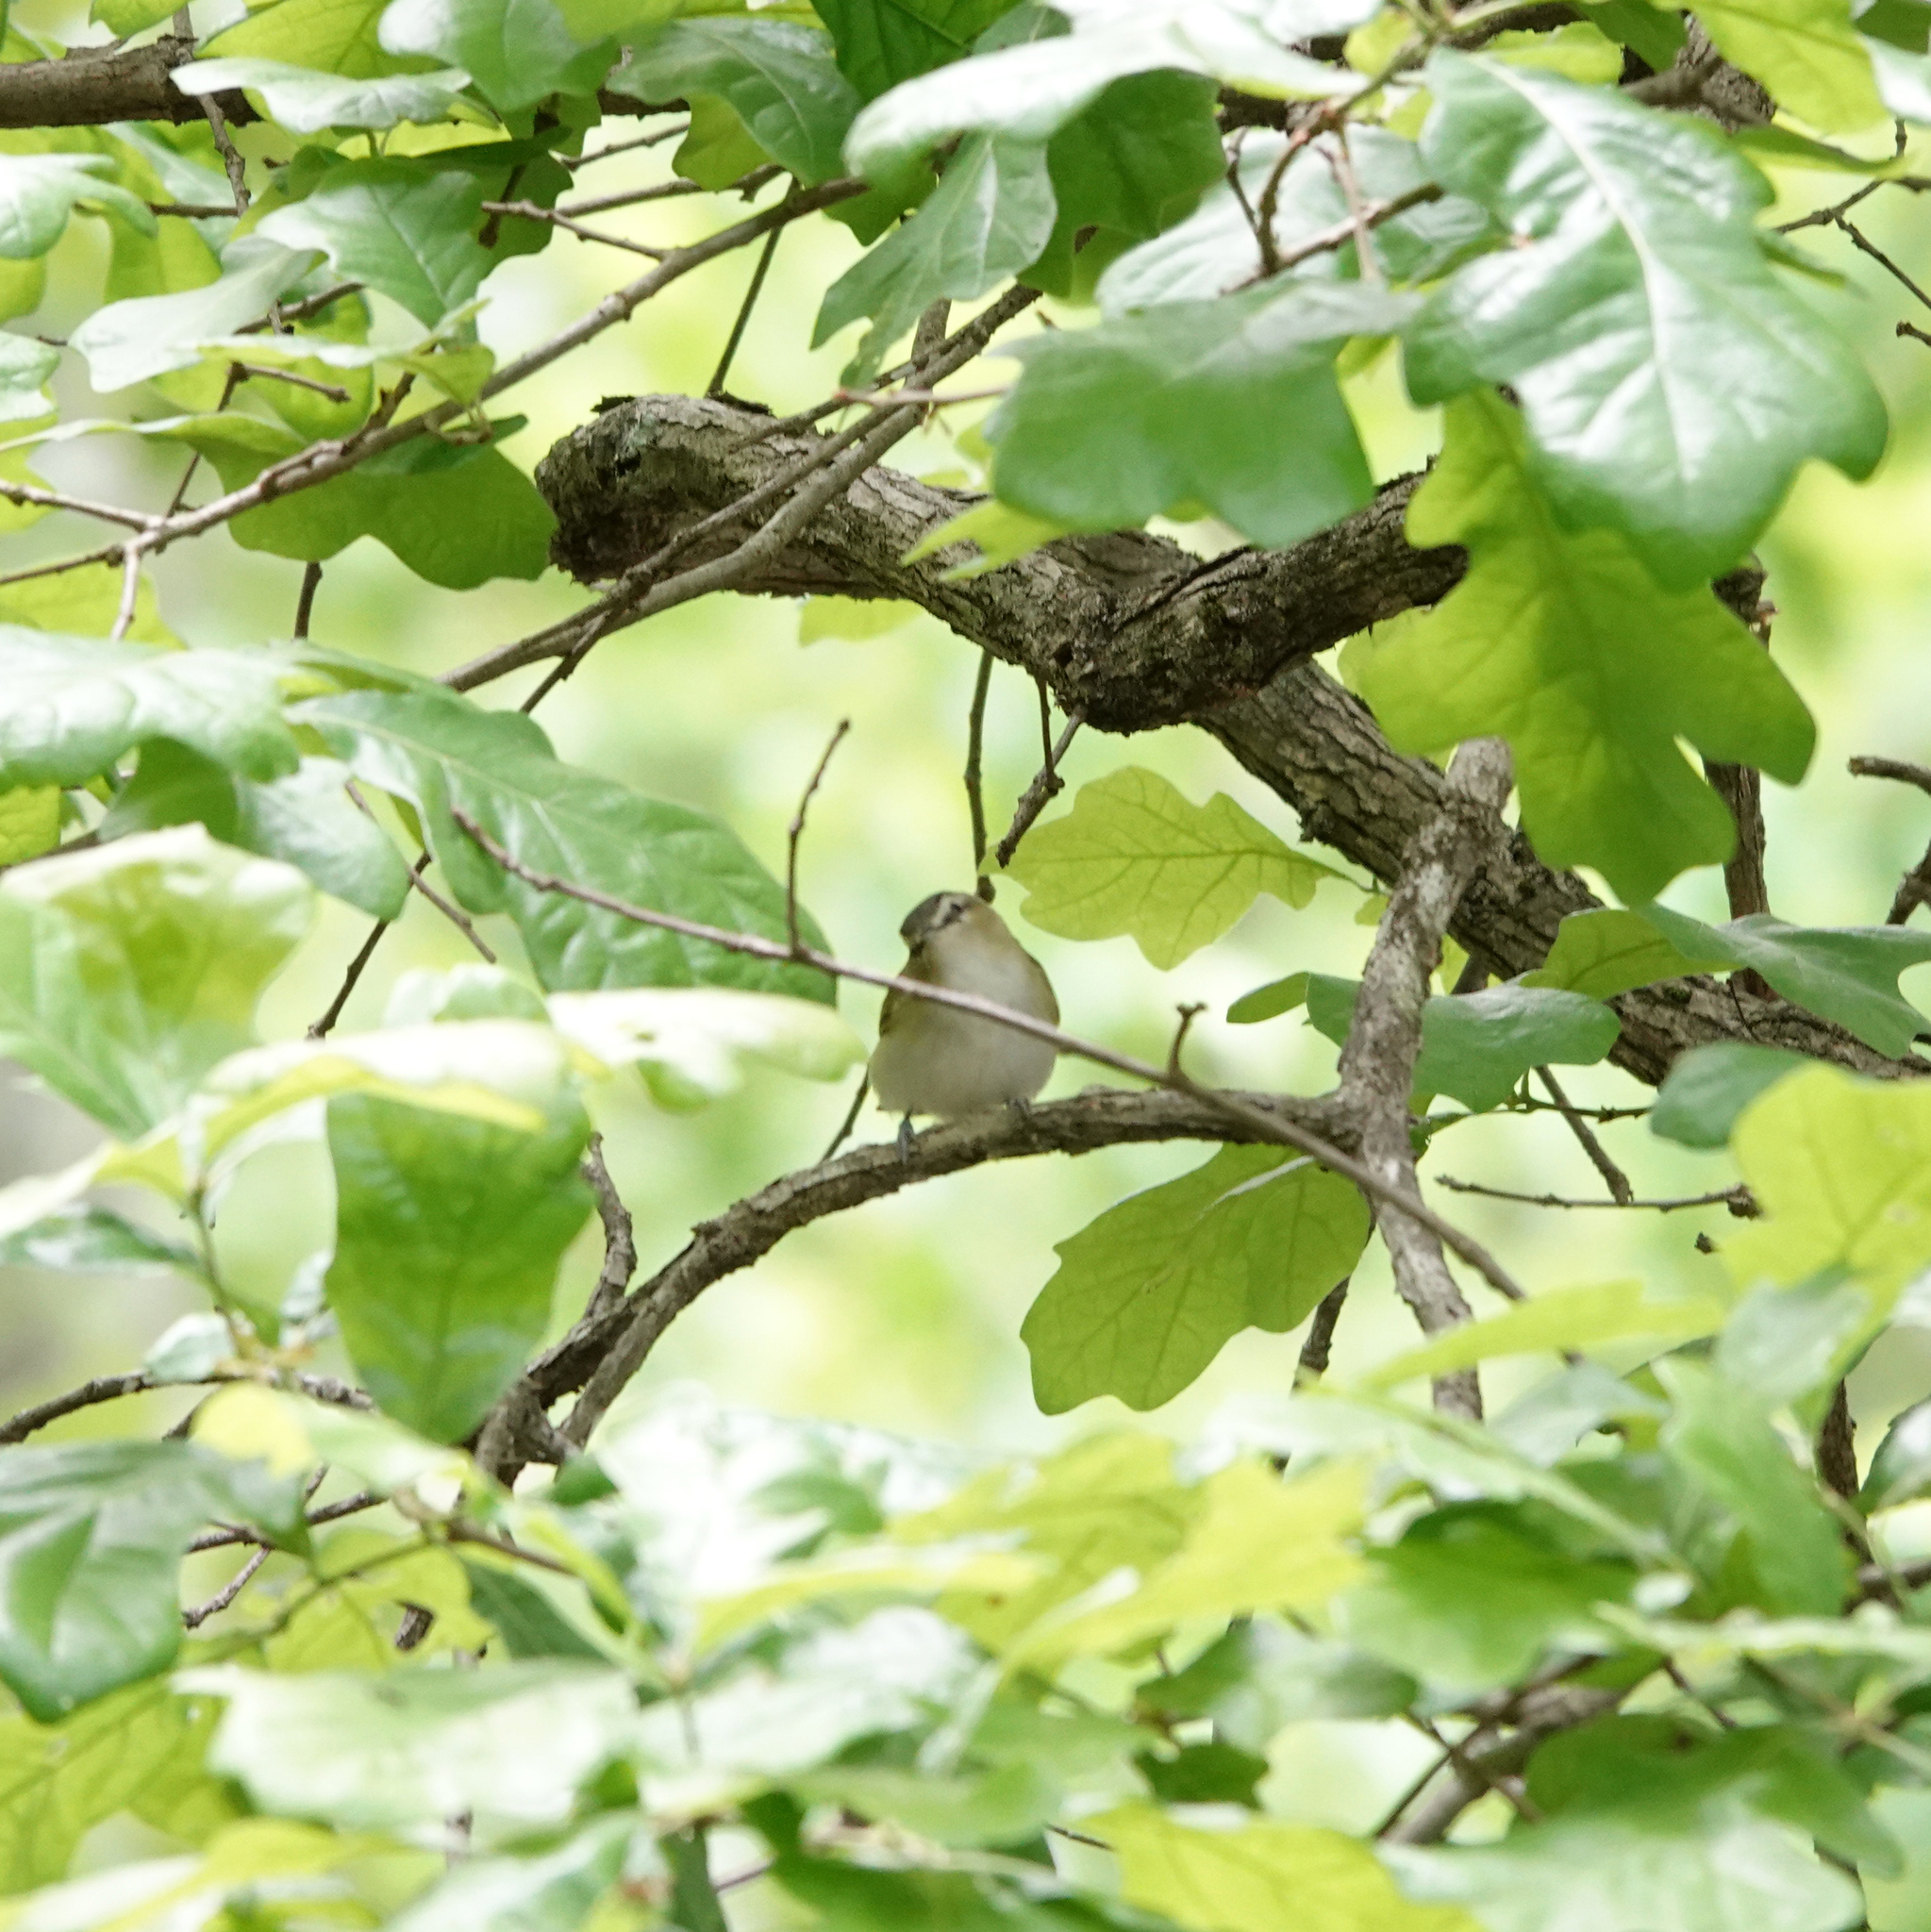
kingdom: Animalia
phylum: Chordata
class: Aves
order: Passeriformes
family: Vireonidae
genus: Vireo
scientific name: Vireo olivaceus
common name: Red-eyed vireo
